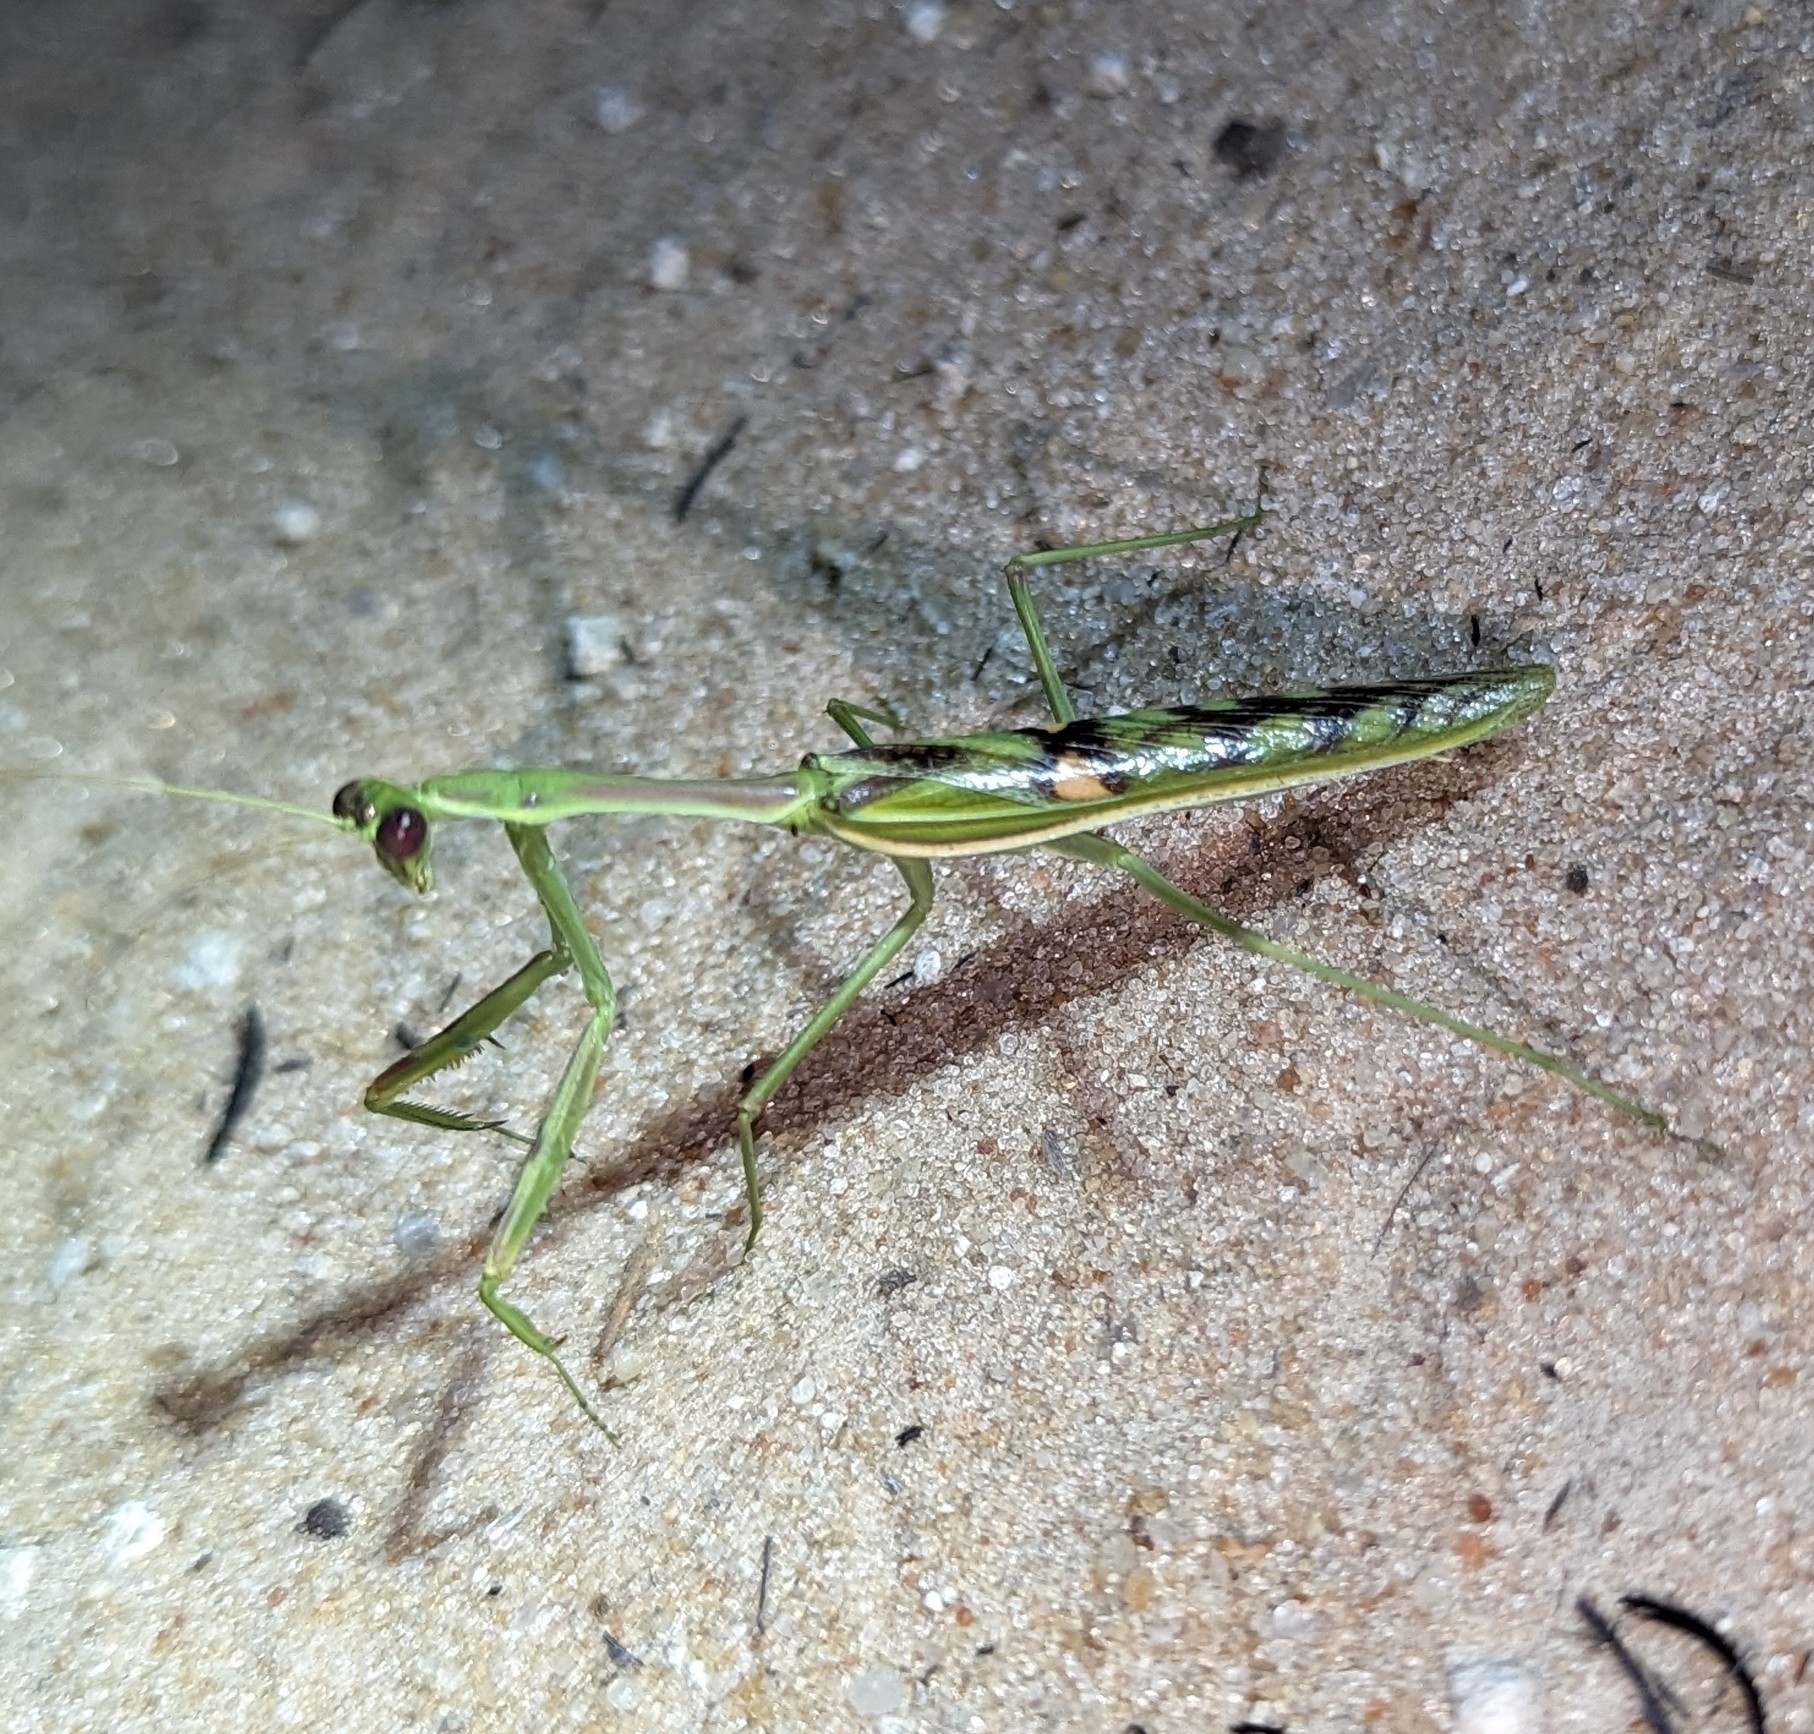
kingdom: Animalia
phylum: Arthropoda
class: Insecta
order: Mantodea
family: Mantidae
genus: Omomantis
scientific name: Omomantis zebrata
